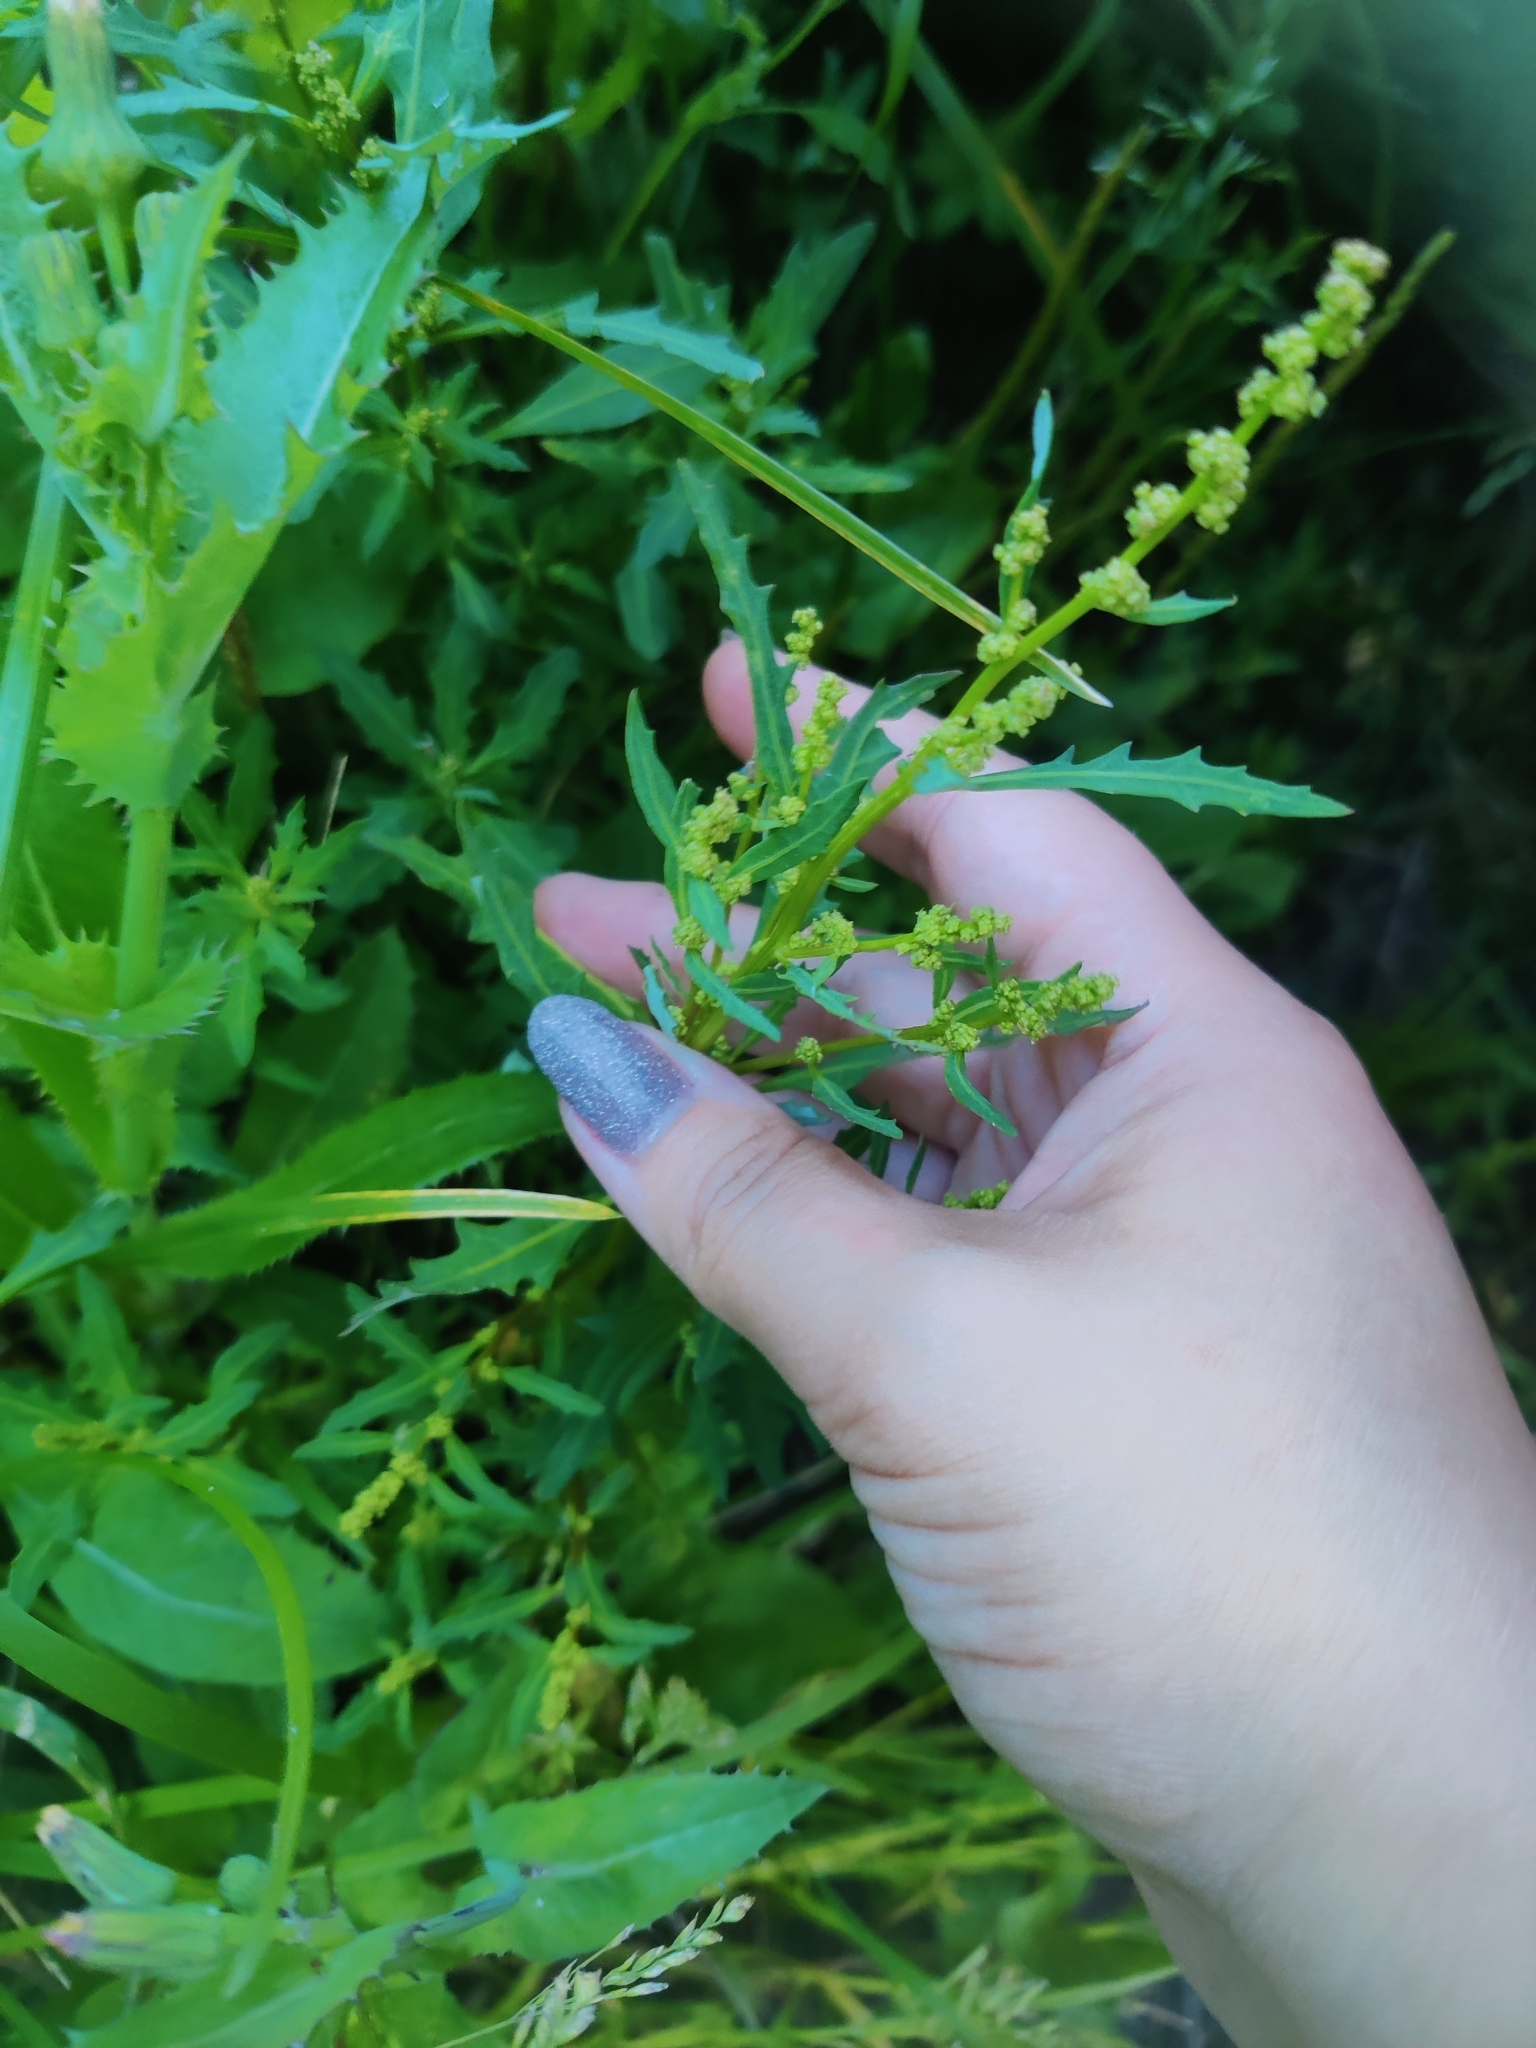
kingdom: Plantae
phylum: Tracheophyta
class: Magnoliopsida
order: Caryophyllales
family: Amaranthaceae
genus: Oxybasis
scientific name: Oxybasis glauca
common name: Glaucous goosefoot
